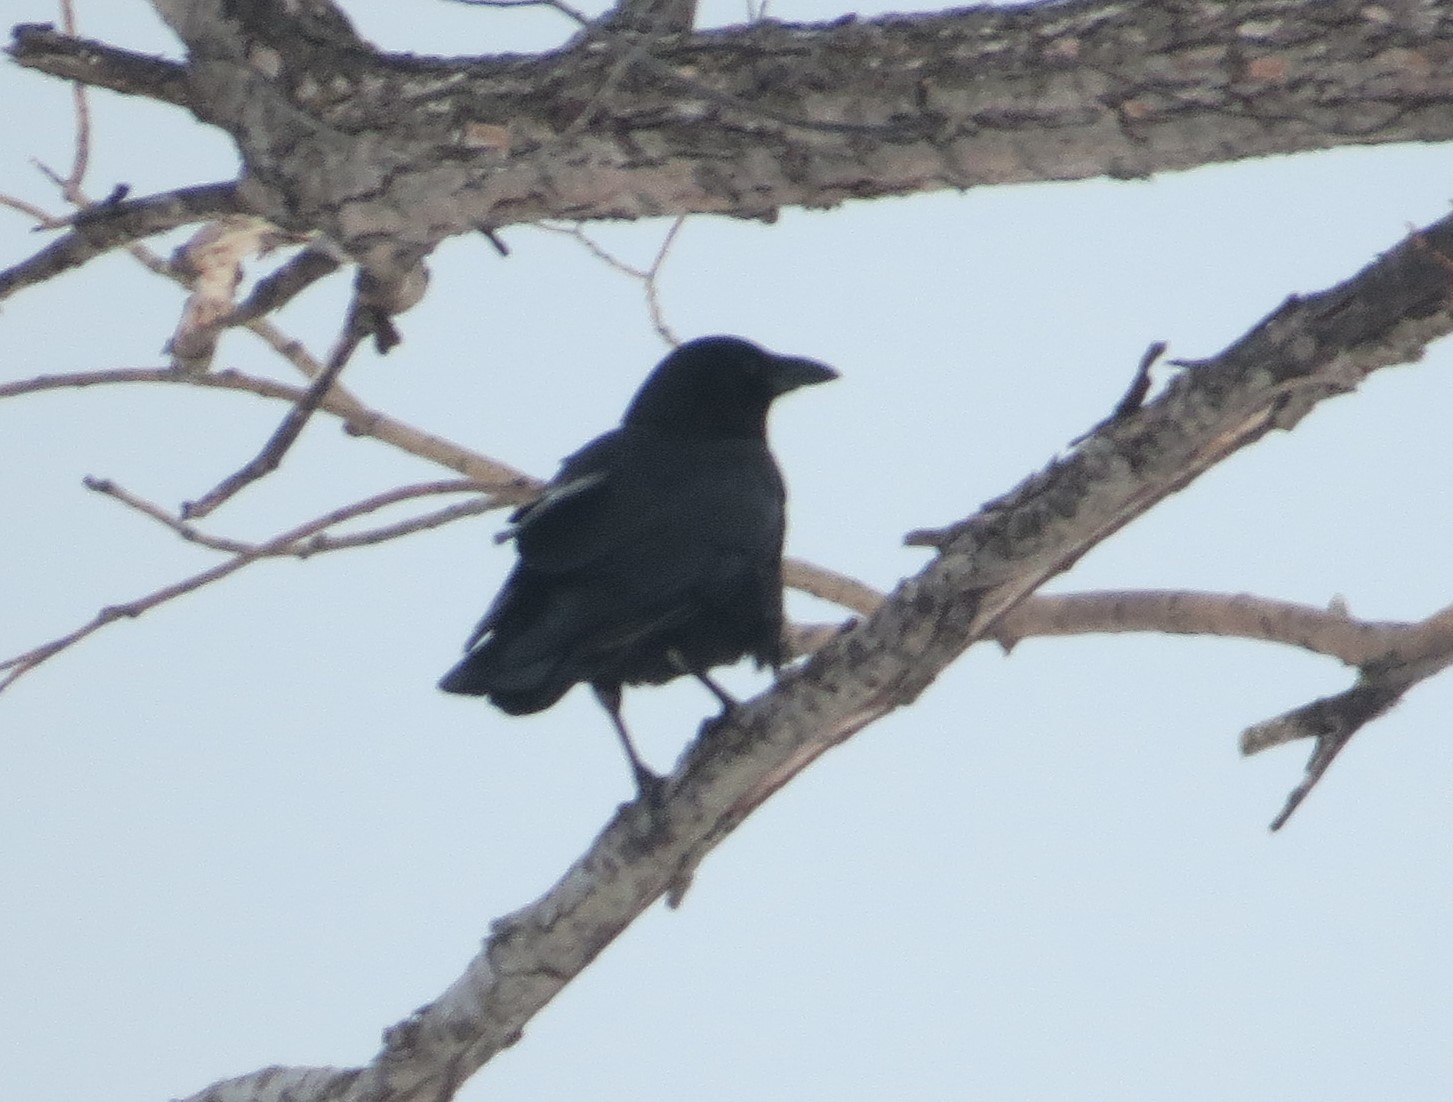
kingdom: Animalia
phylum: Chordata
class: Aves
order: Passeriformes
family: Corvidae
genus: Corvus
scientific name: Corvus brachyrhynchos
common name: American crow
